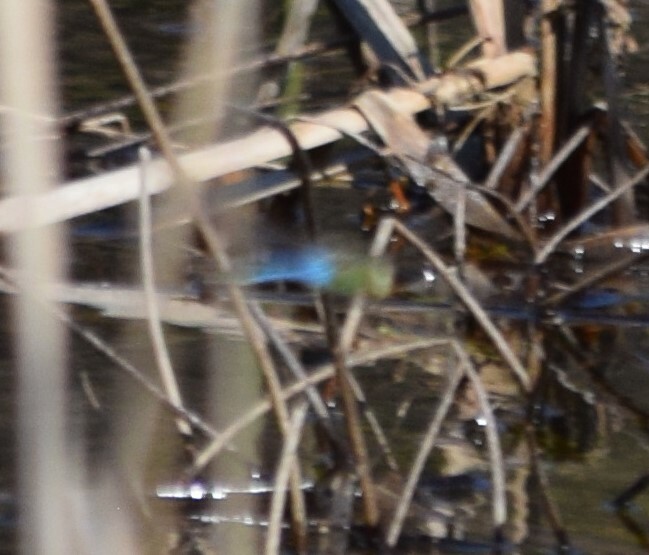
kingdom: Animalia
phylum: Arthropoda
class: Insecta
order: Odonata
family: Aeshnidae
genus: Anax
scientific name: Anax junius
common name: Common green darner
